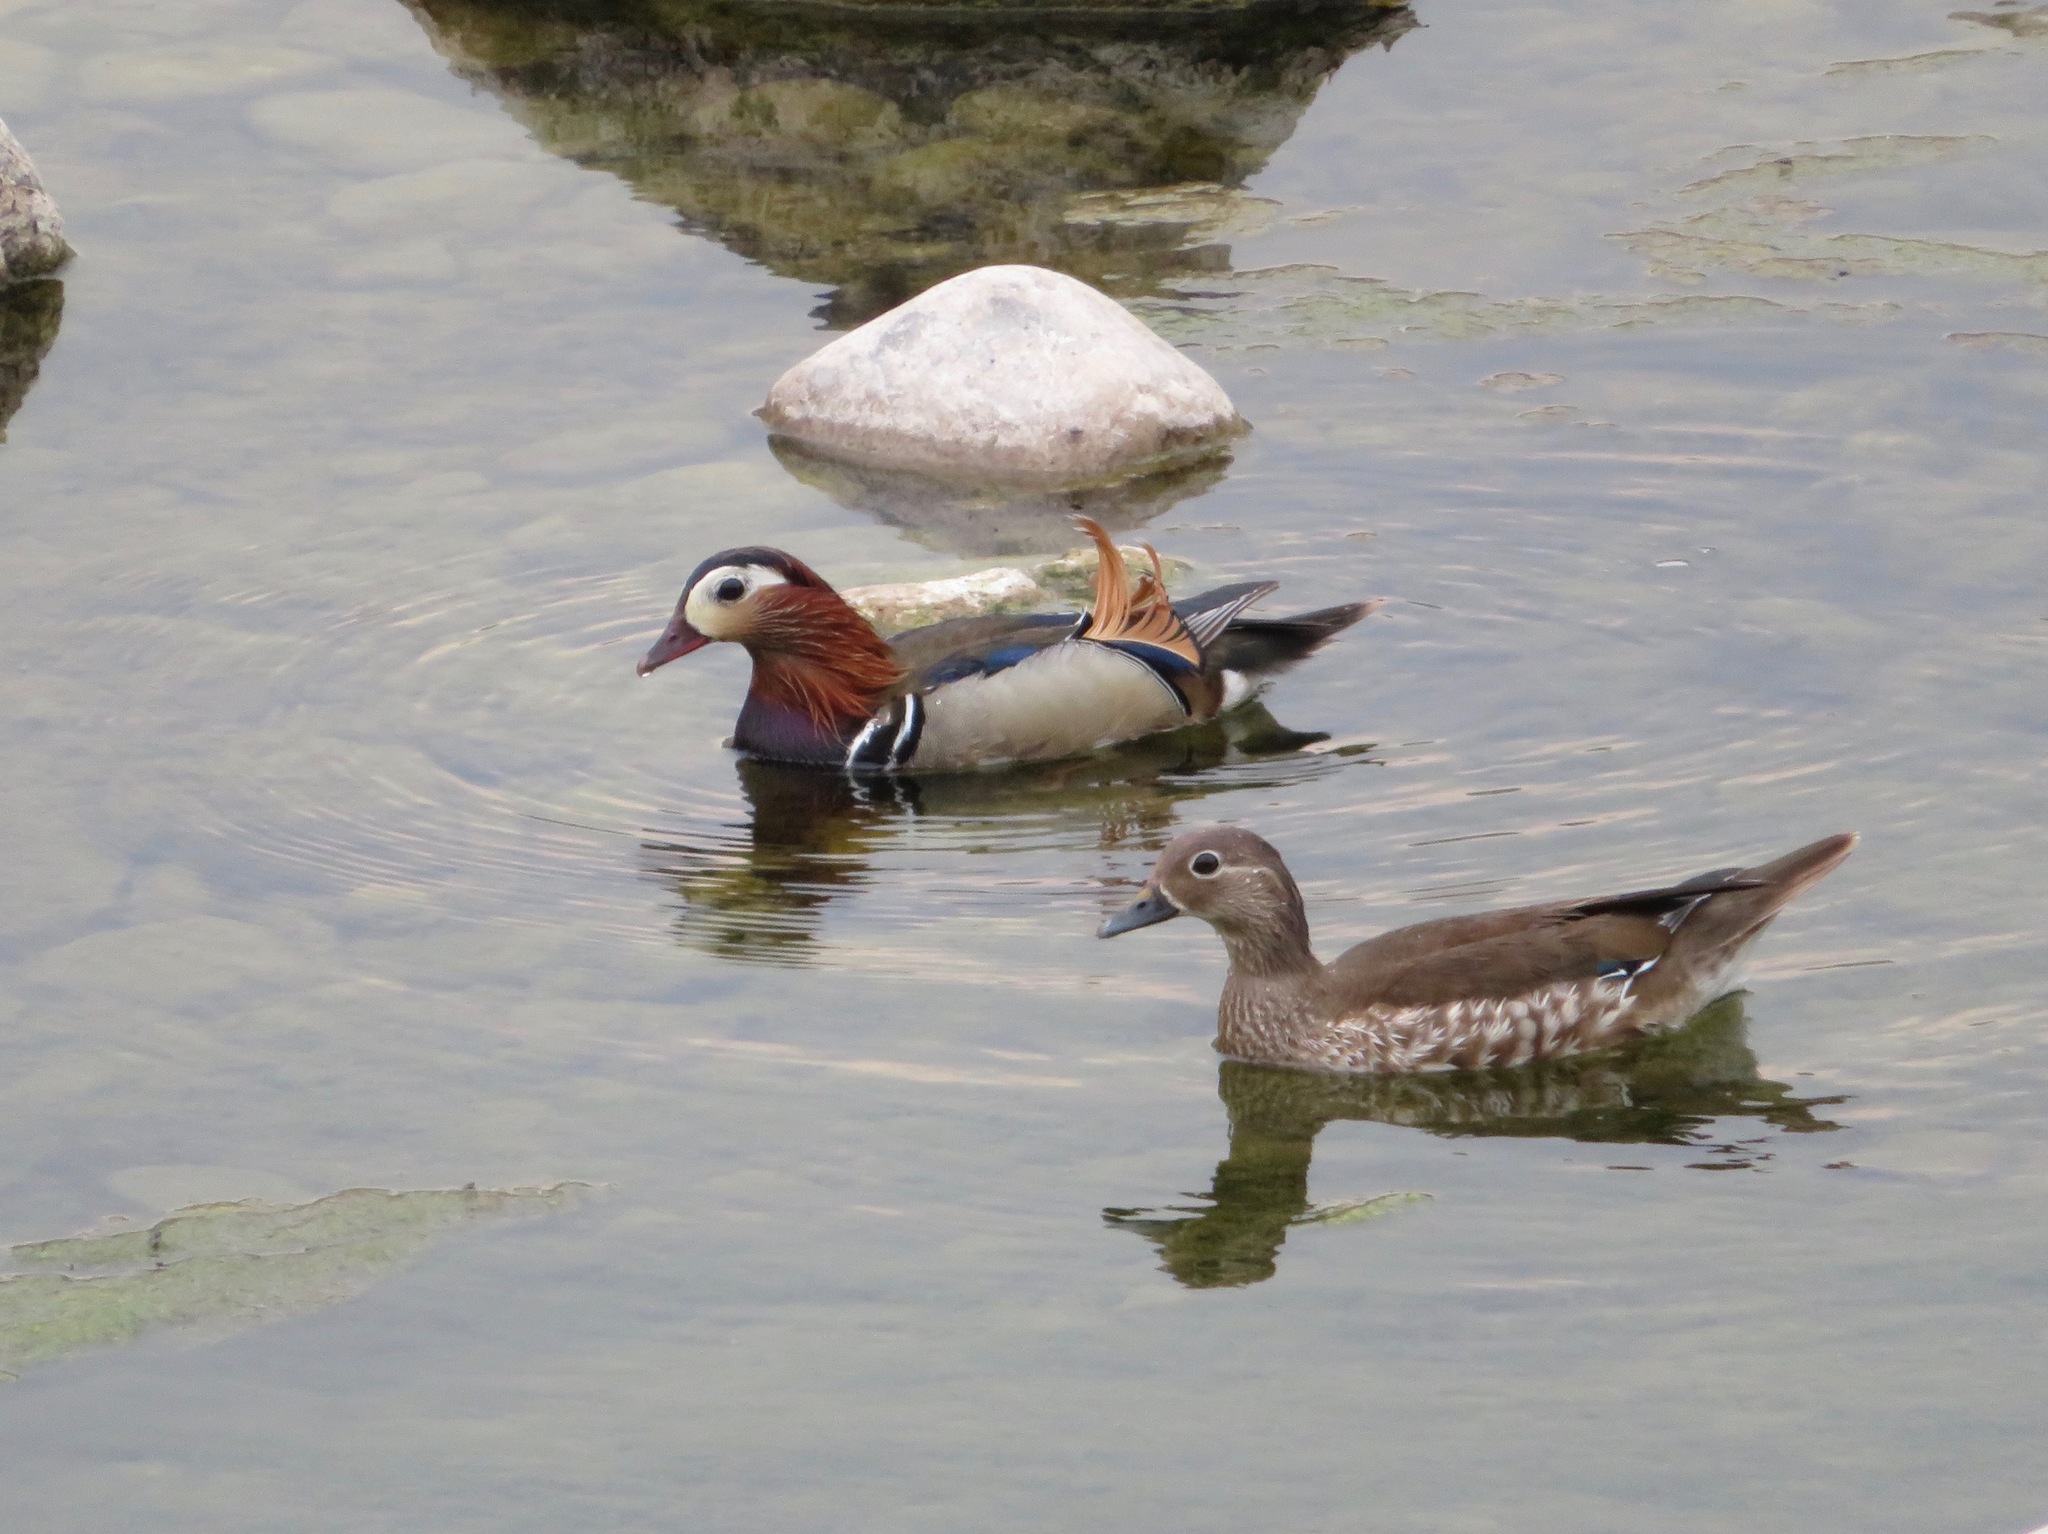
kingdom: Animalia
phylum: Chordata
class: Aves
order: Anseriformes
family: Anatidae
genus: Aix
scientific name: Aix galericulata
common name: Mandarin duck
